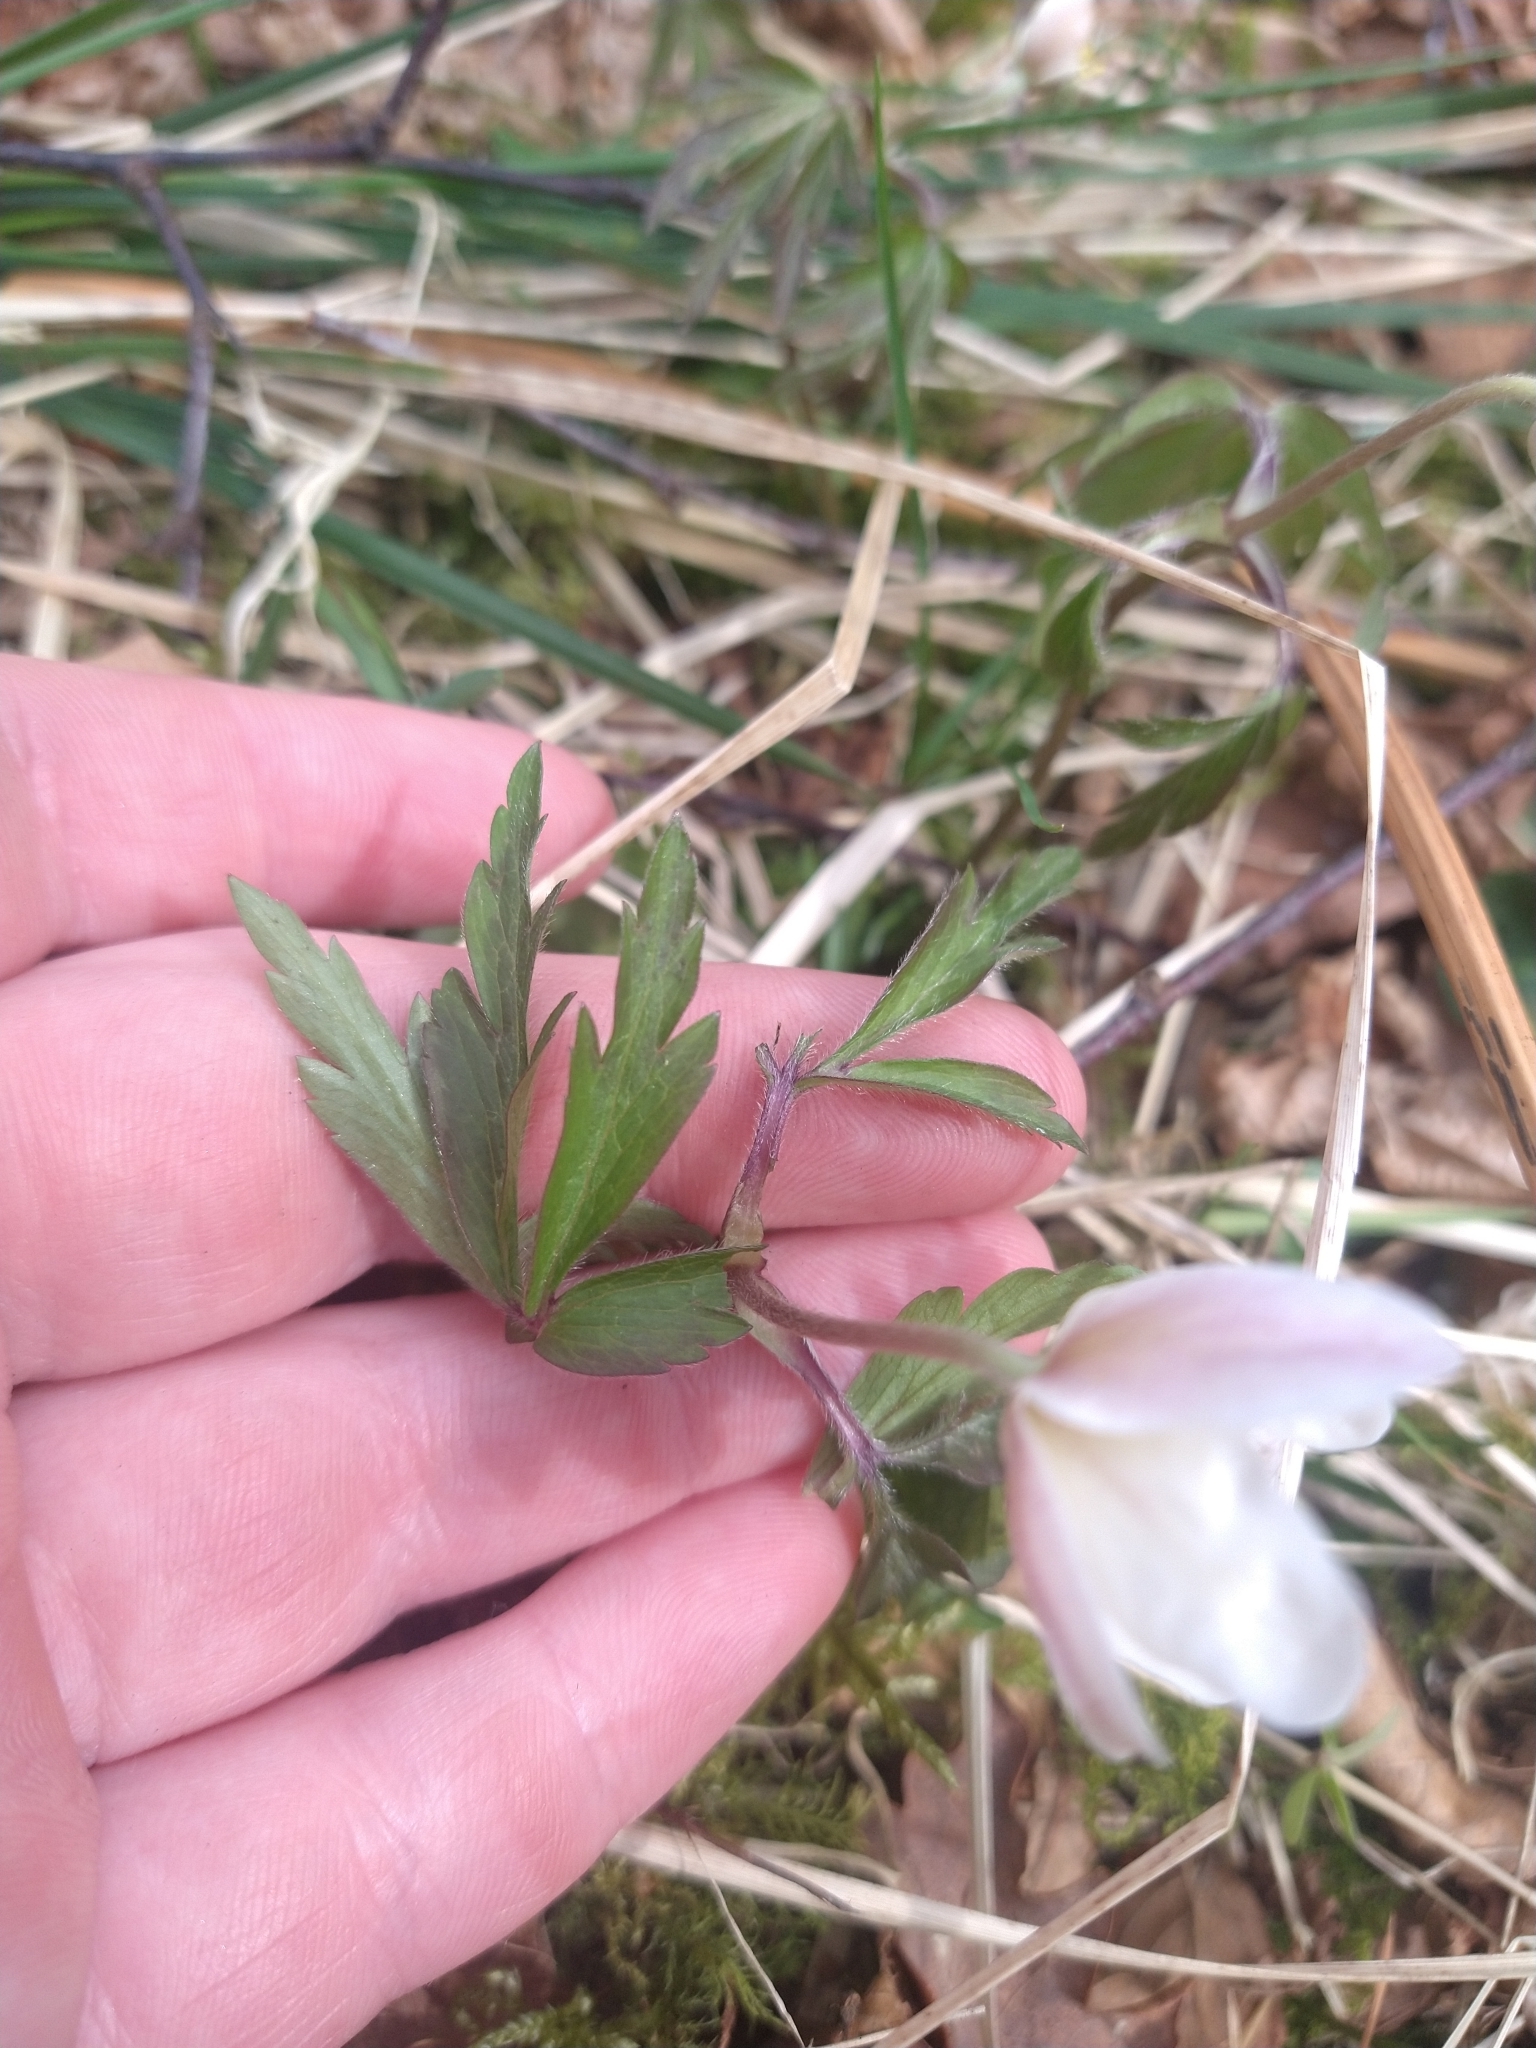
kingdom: Plantae
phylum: Tracheophyta
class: Magnoliopsida
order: Ranunculales
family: Ranunculaceae
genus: Anemone
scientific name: Anemone nemorosa
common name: Wood anemone
